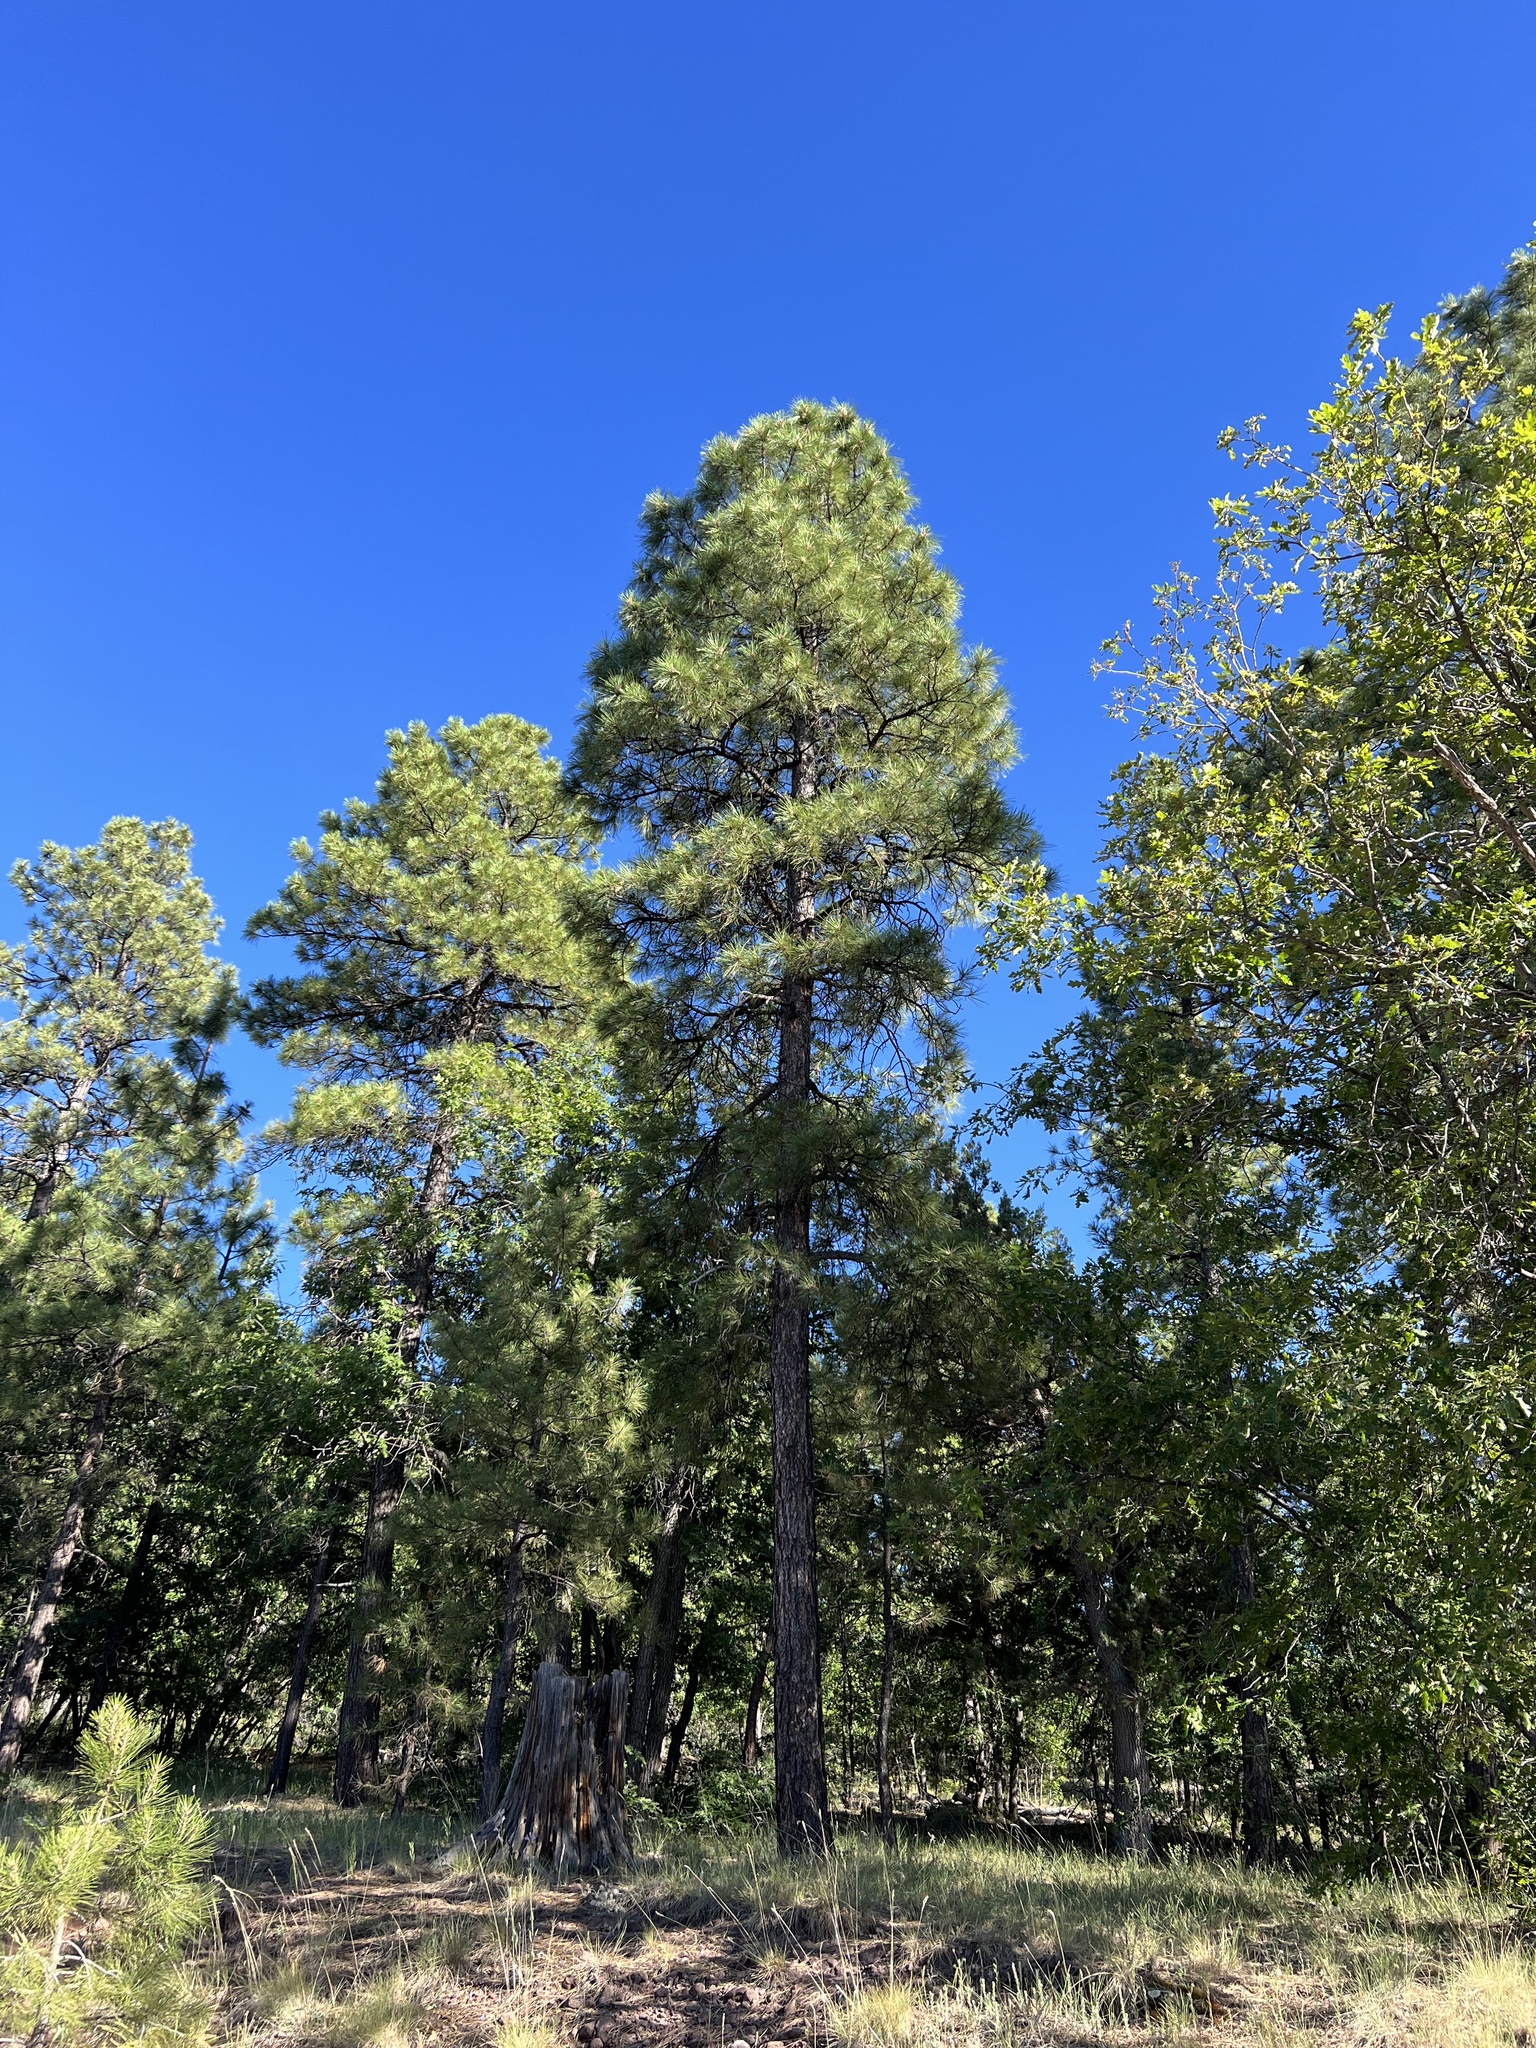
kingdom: Plantae
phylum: Tracheophyta
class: Pinopsida
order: Pinales
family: Pinaceae
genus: Pinus
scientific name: Pinus ponderosa
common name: Western yellow-pine
